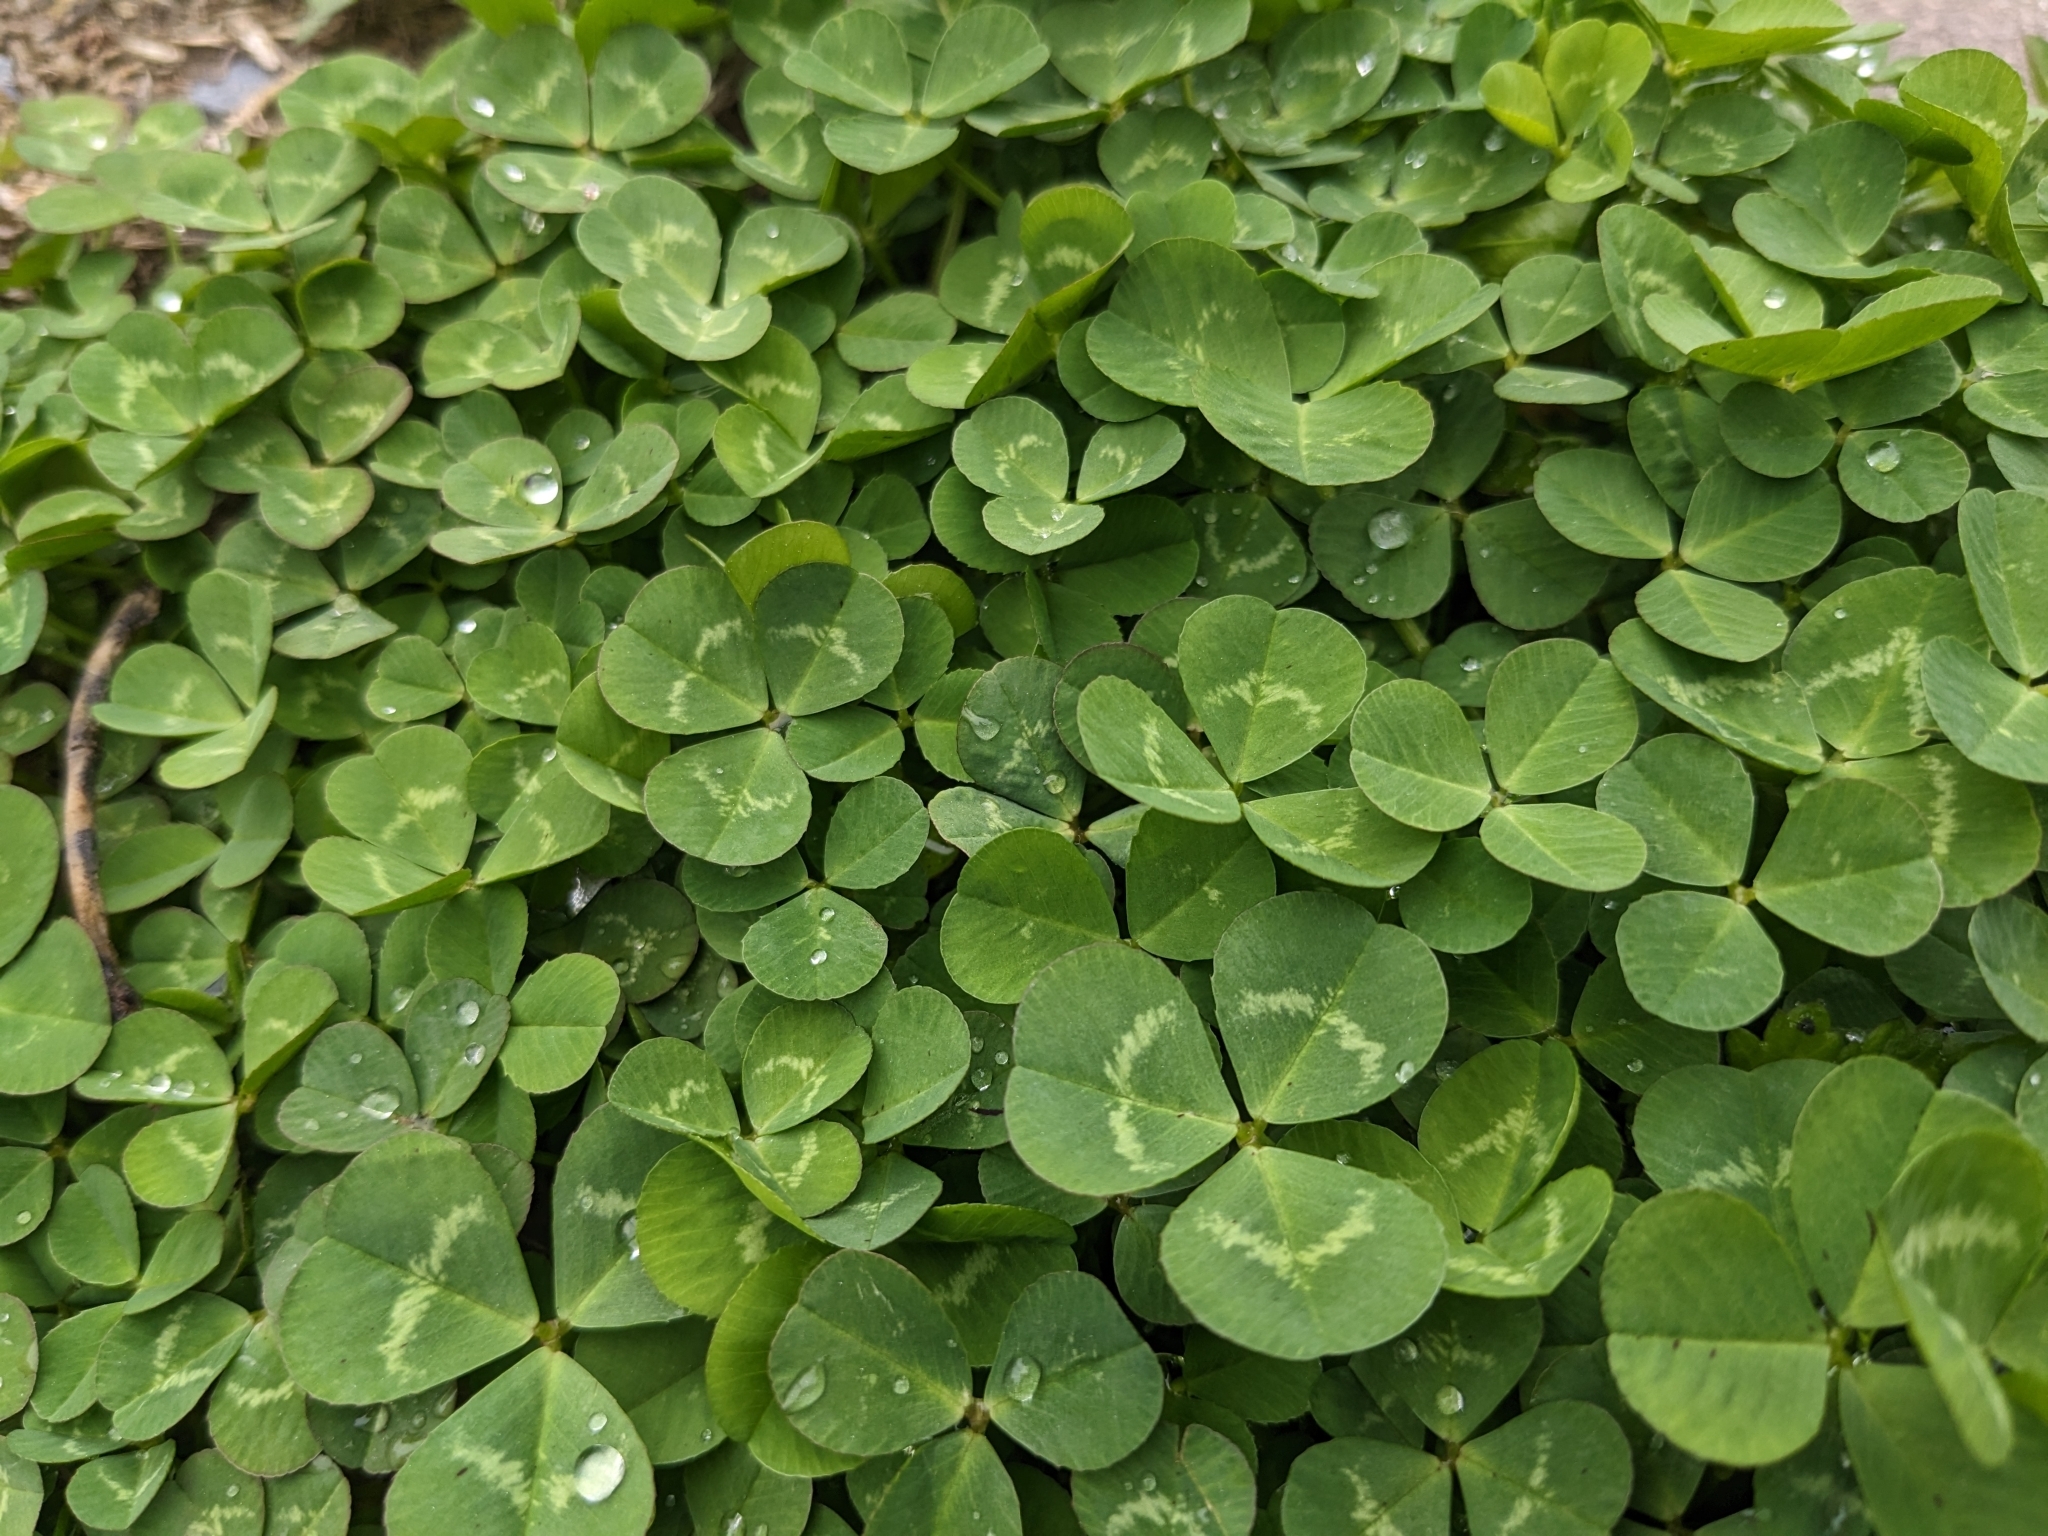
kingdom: Plantae
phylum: Tracheophyta
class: Magnoliopsida
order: Fabales
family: Fabaceae
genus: Trifolium
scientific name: Trifolium repens
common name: White clover
